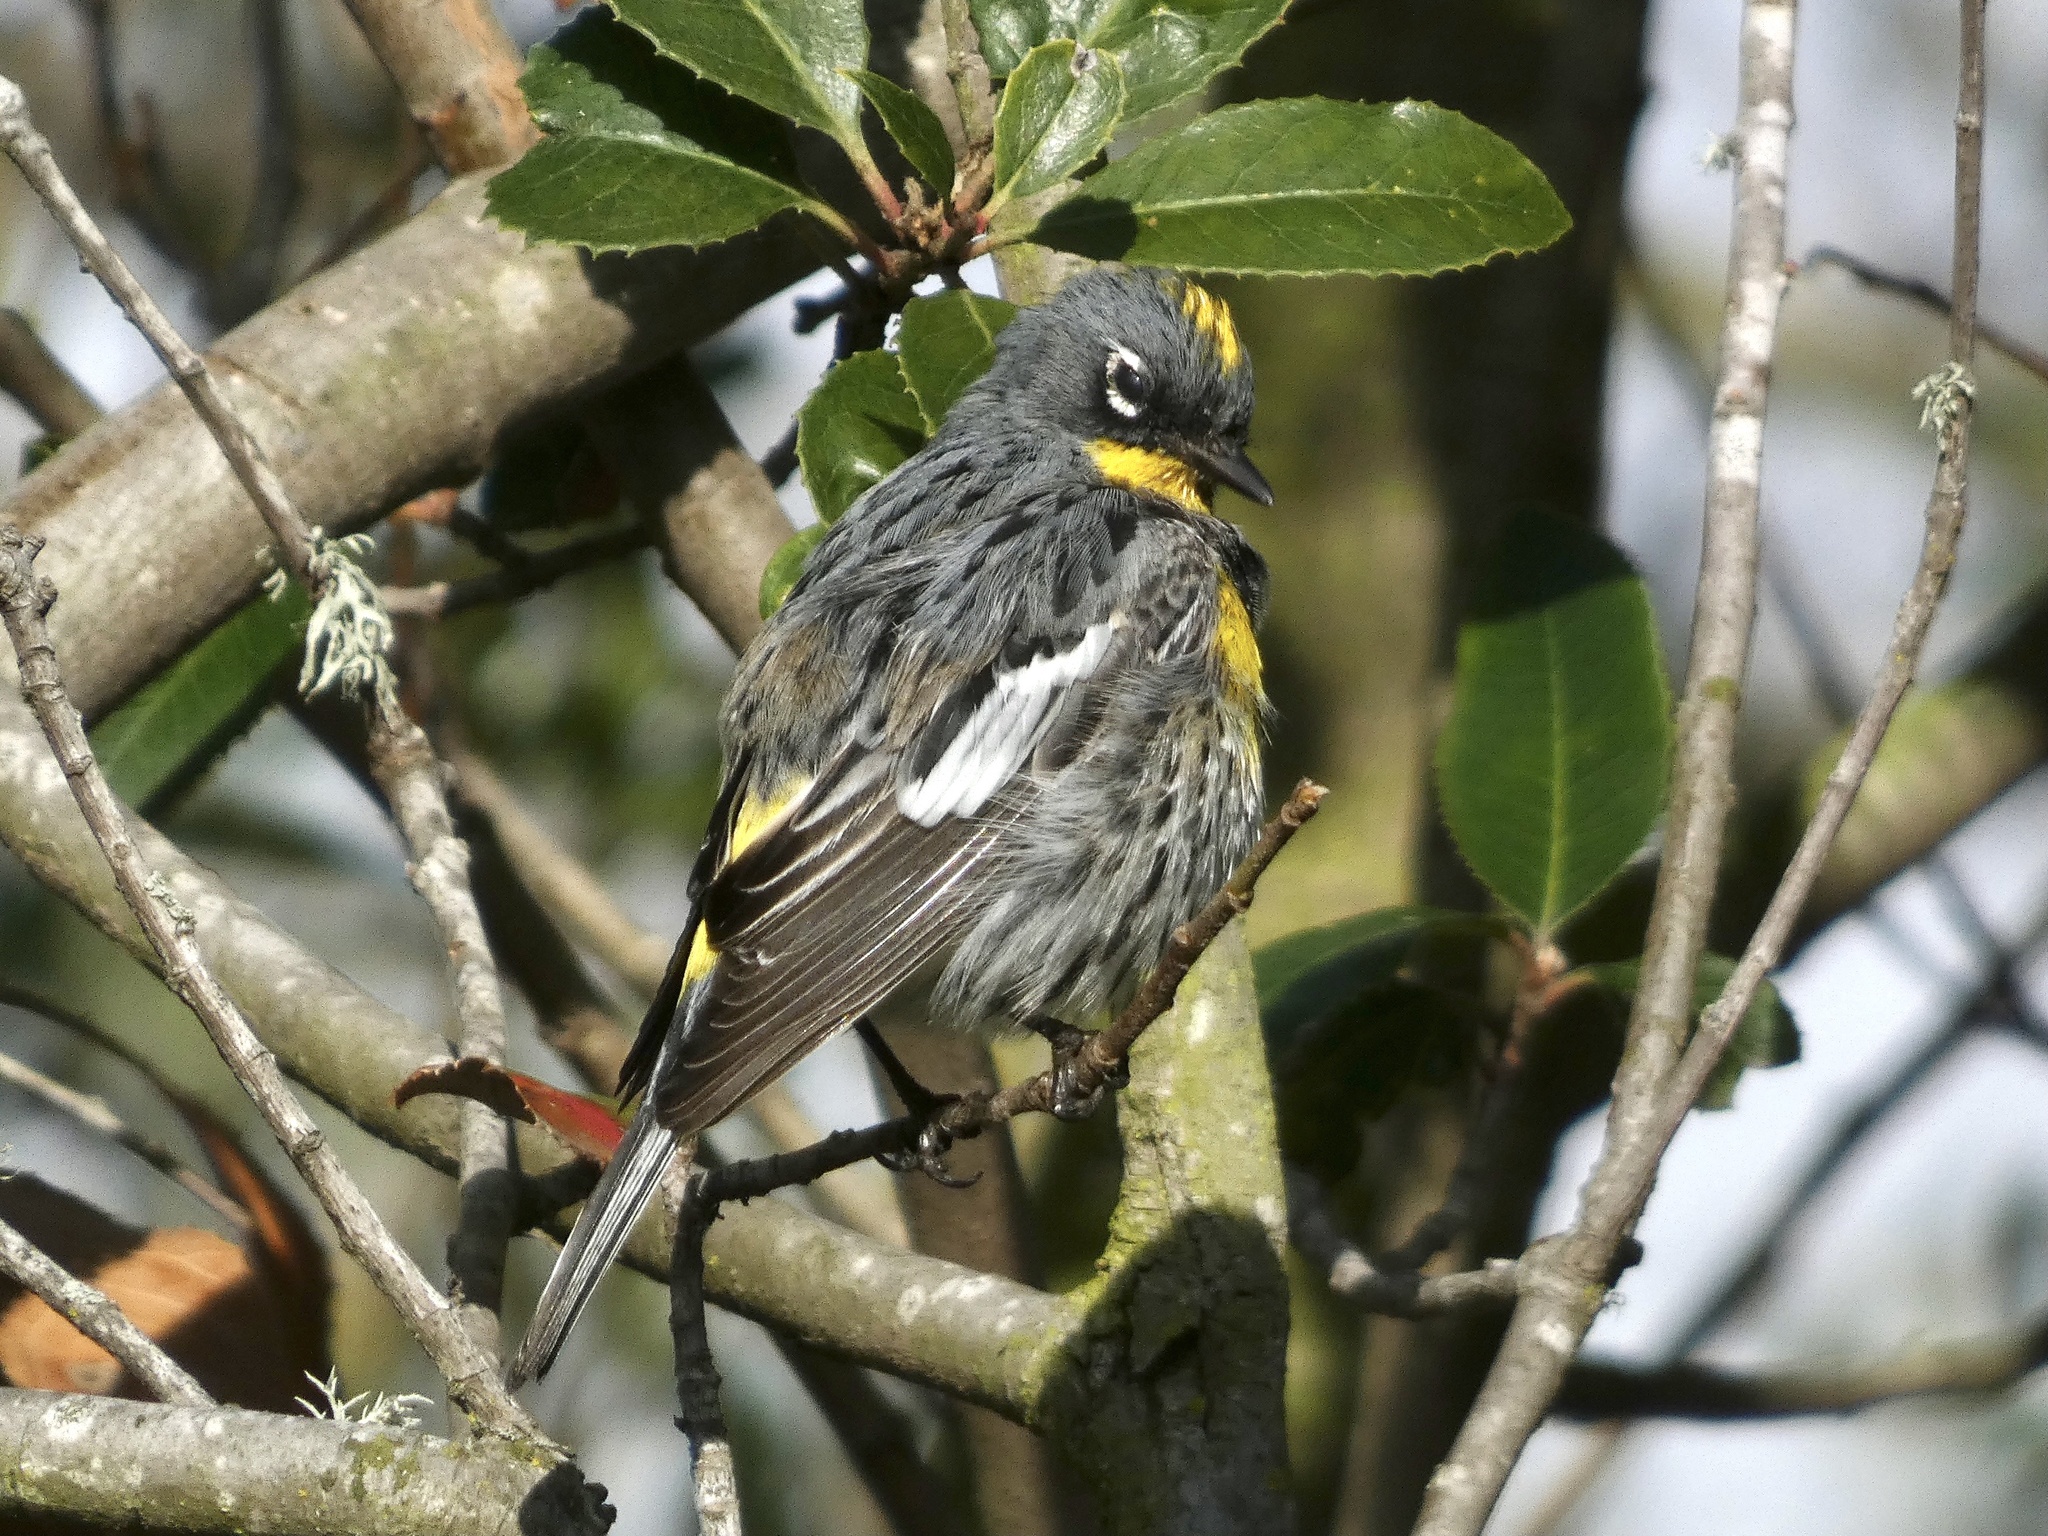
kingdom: Animalia
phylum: Chordata
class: Aves
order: Passeriformes
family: Parulidae
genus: Setophaga
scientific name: Setophaga coronata
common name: Myrtle warbler
